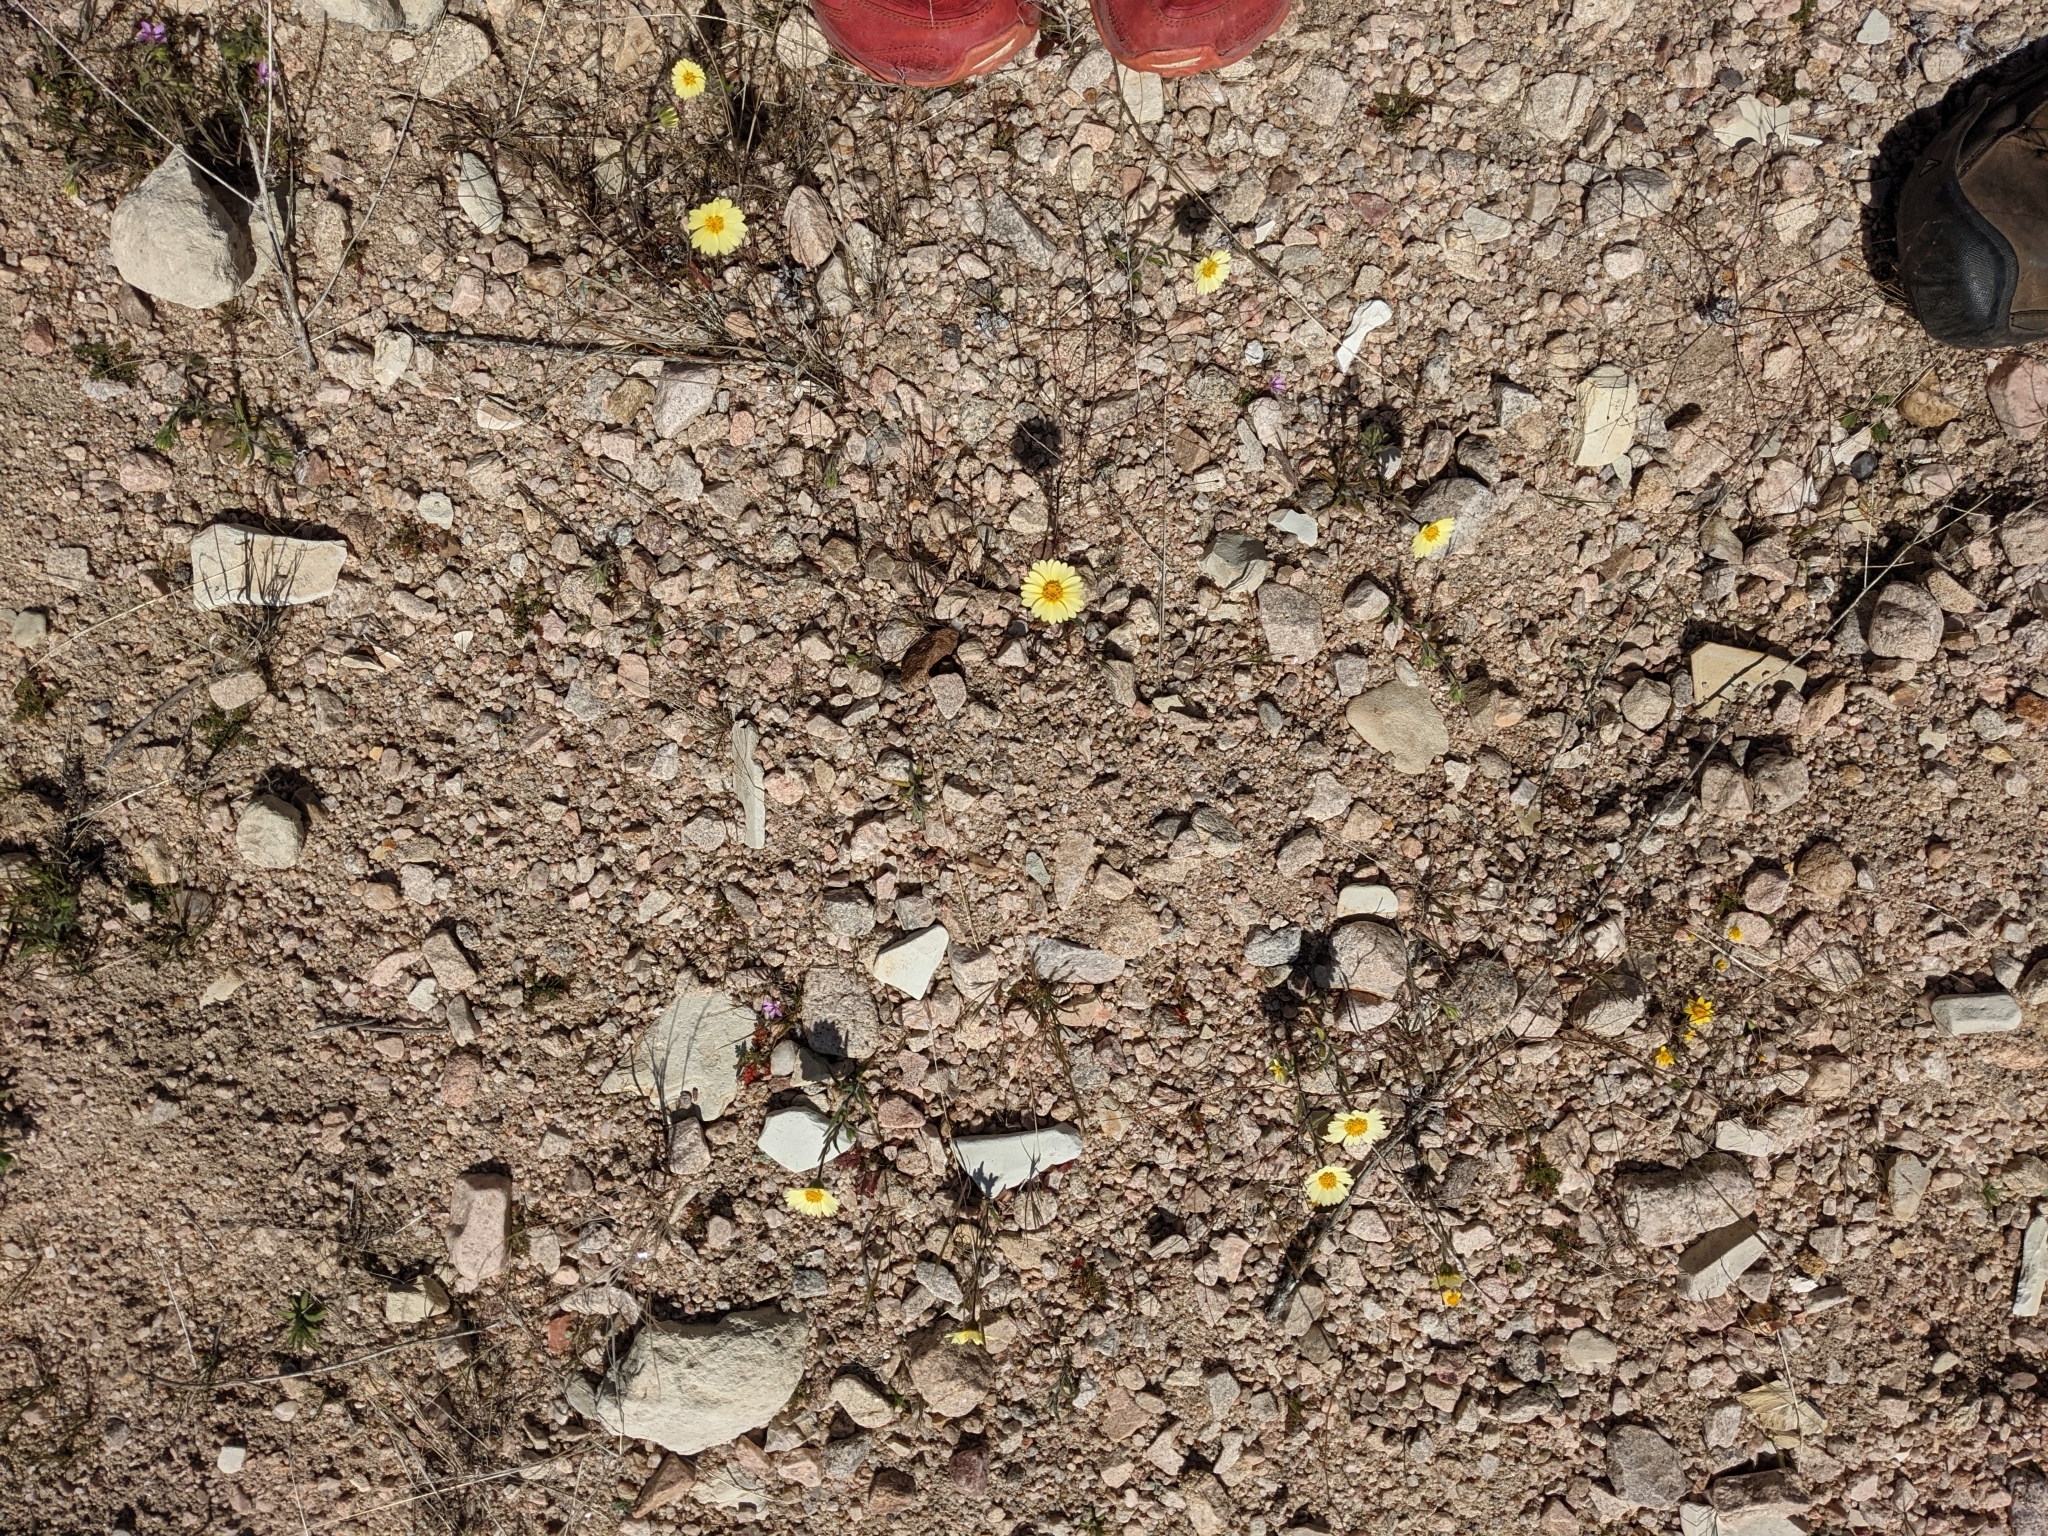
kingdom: Plantae
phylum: Tracheophyta
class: Magnoliopsida
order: Asterales
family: Asteraceae
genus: Layia
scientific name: Layia glandulosa
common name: White layia
